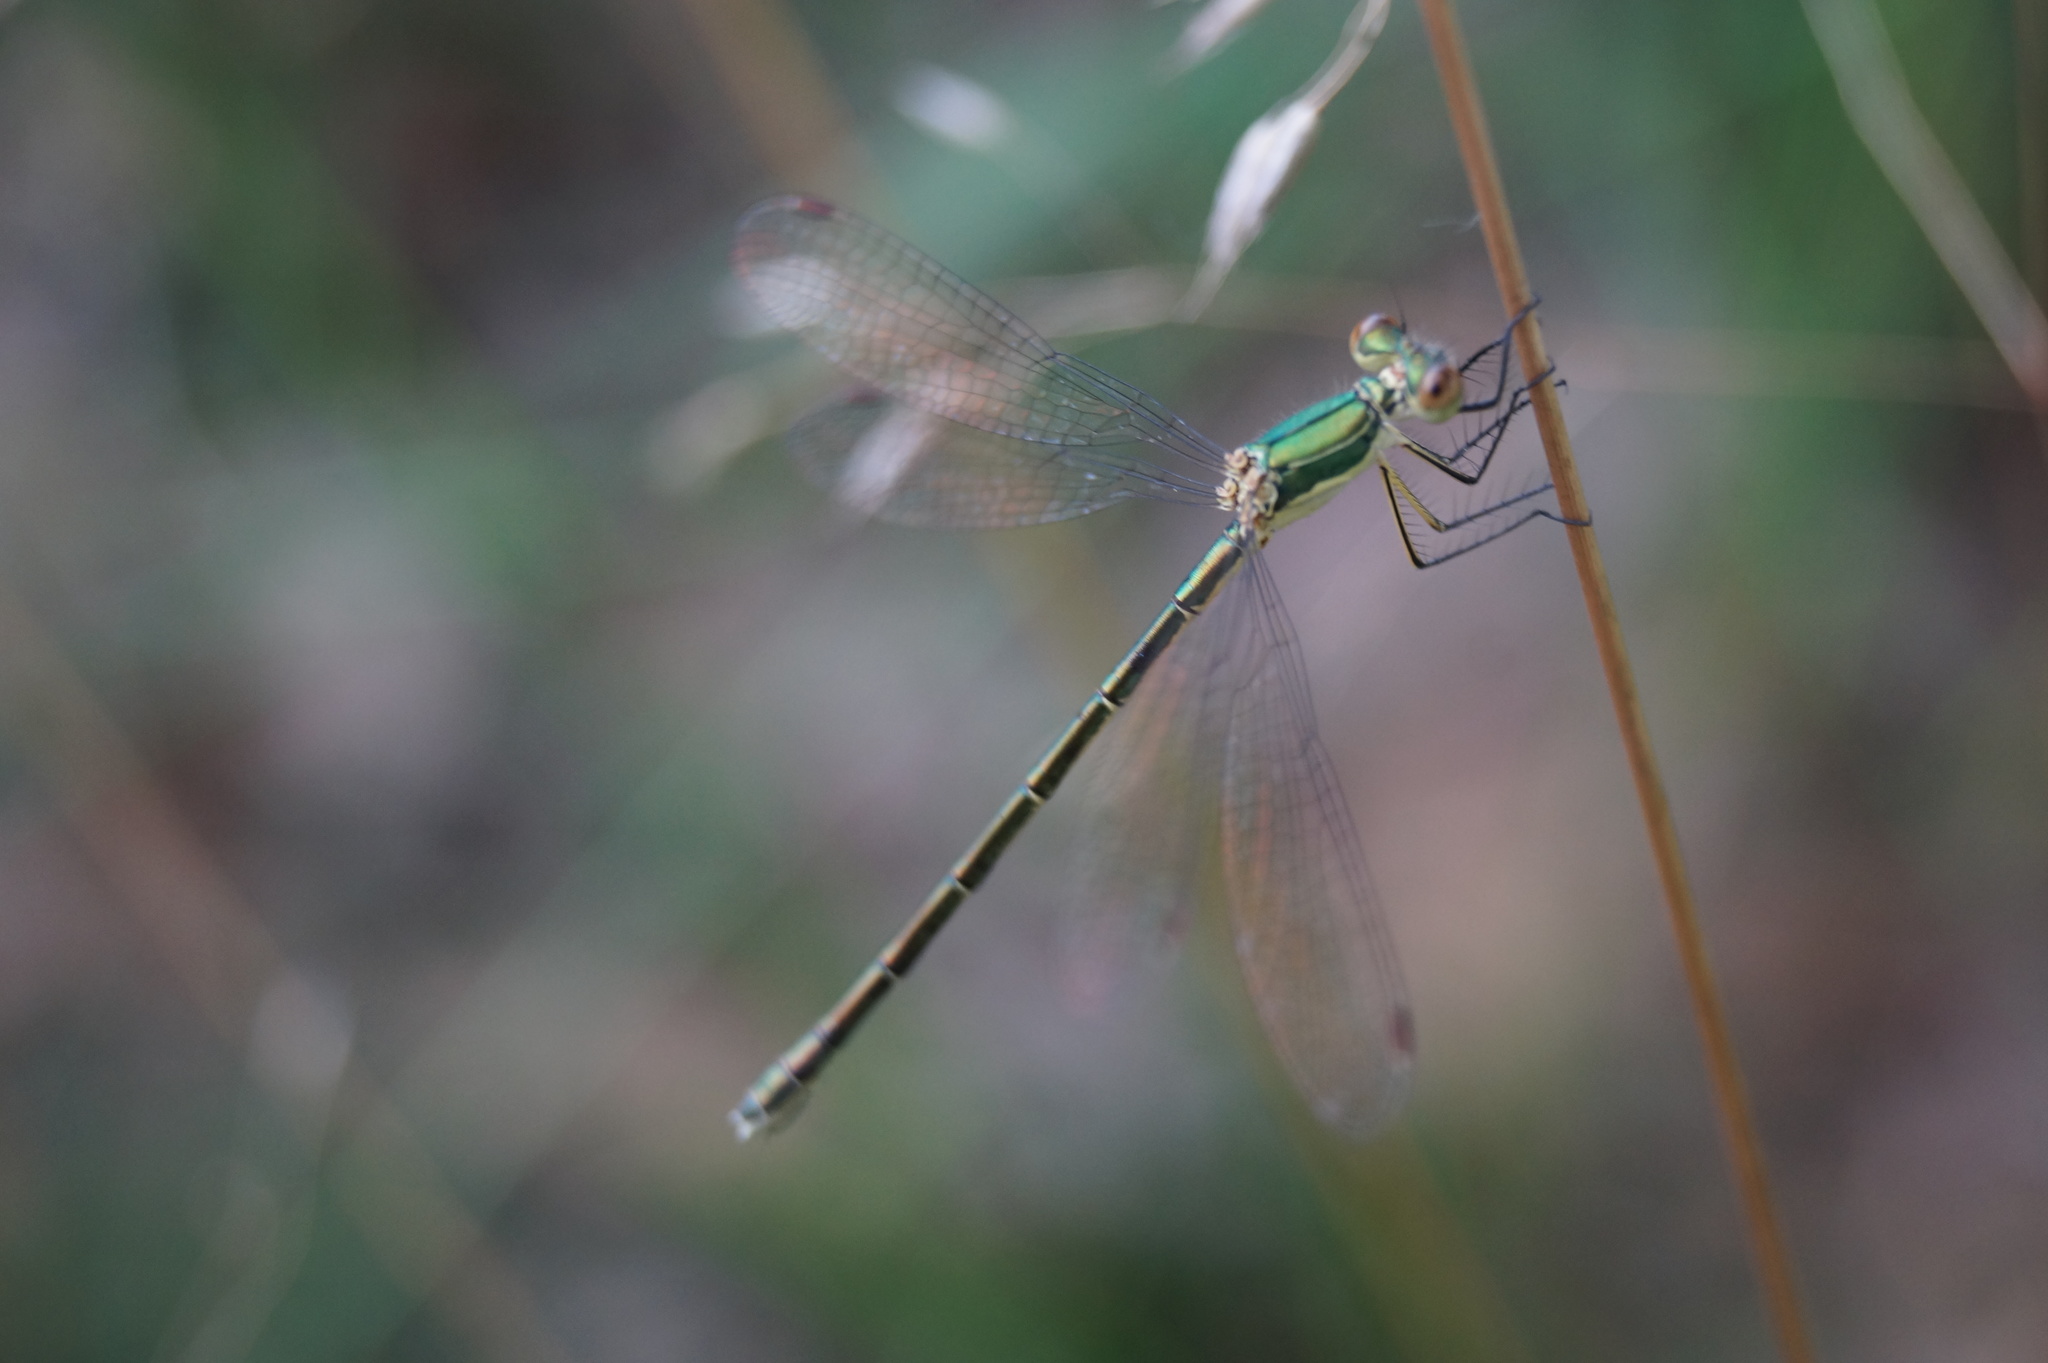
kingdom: Animalia
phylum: Arthropoda
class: Insecta
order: Odonata
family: Lestidae
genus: Lestes
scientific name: Lestes virens
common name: Small emerald spreadwing
